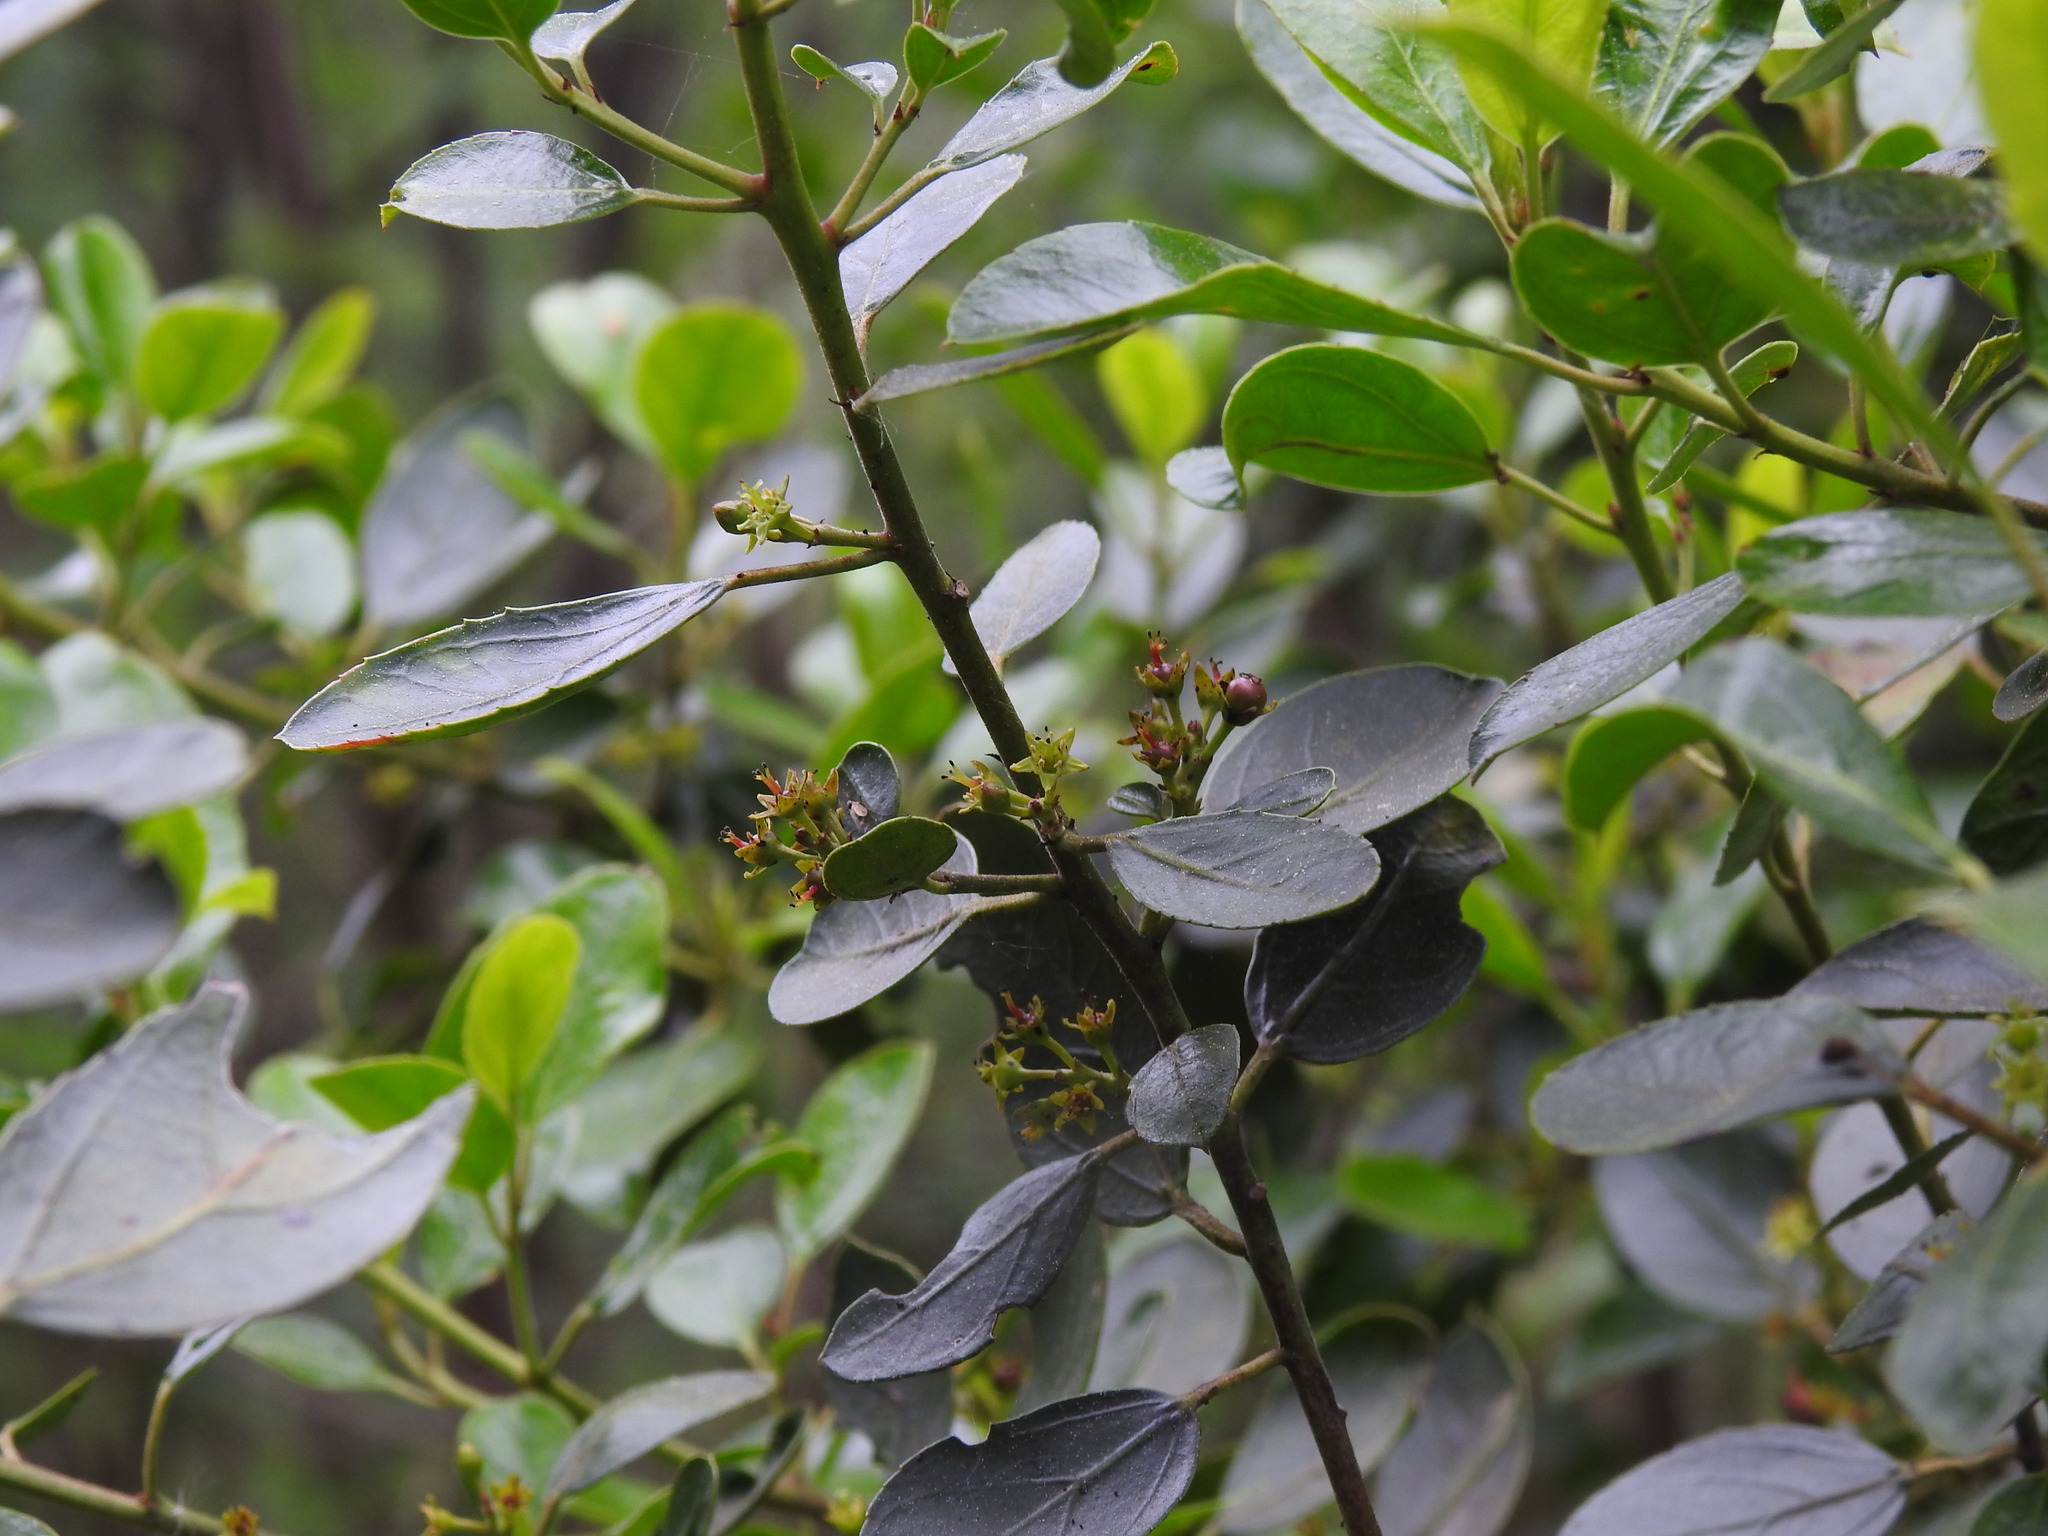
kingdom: Plantae
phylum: Tracheophyta
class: Magnoliopsida
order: Rosales
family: Rhamnaceae
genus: Rhamnus
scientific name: Rhamnus alaternus
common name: Mediterranean buckthorn
